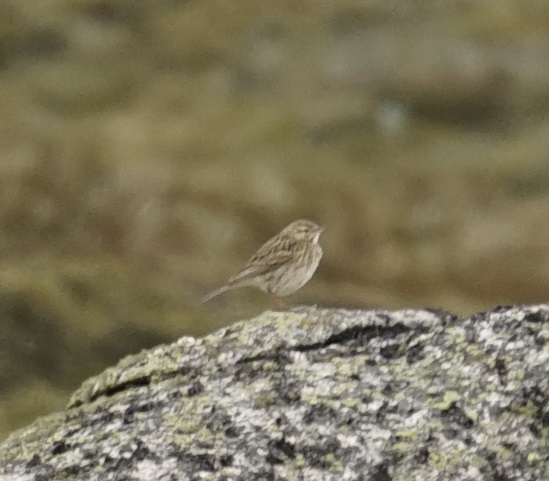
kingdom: Animalia
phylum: Chordata
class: Aves
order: Passeriformes
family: Motacillidae
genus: Anthus
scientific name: Anthus australis
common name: Australian pipit
